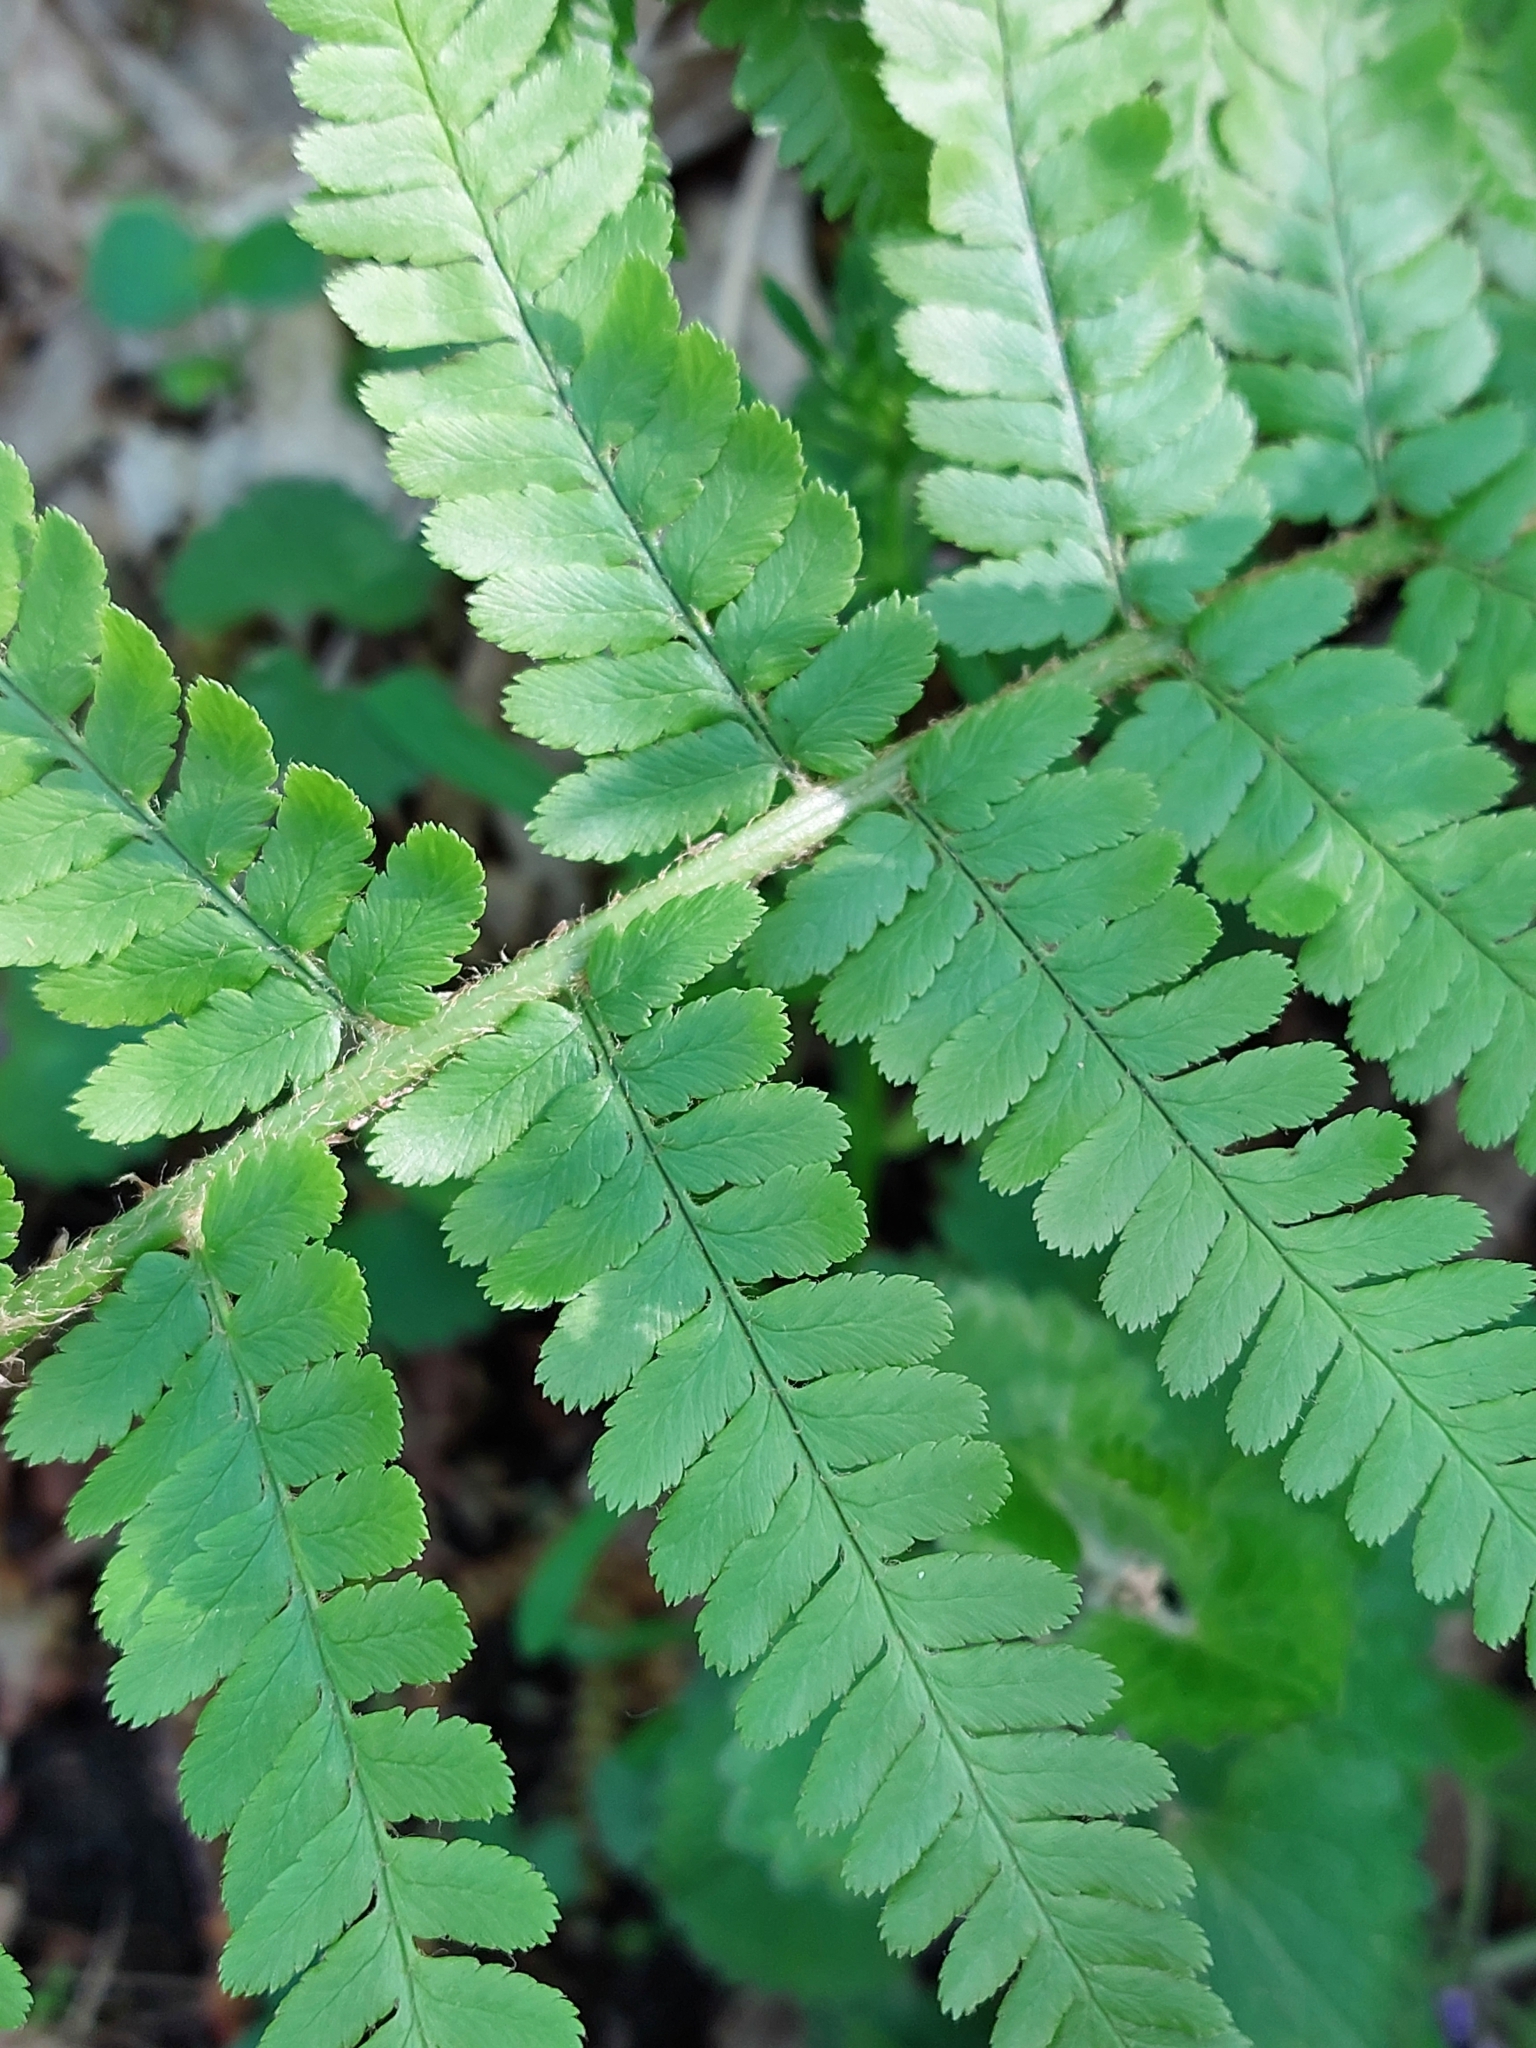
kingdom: Plantae
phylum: Tracheophyta
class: Polypodiopsida
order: Polypodiales
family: Dryopteridaceae
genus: Dryopteris
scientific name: Dryopteris filix-mas
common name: Male fern
